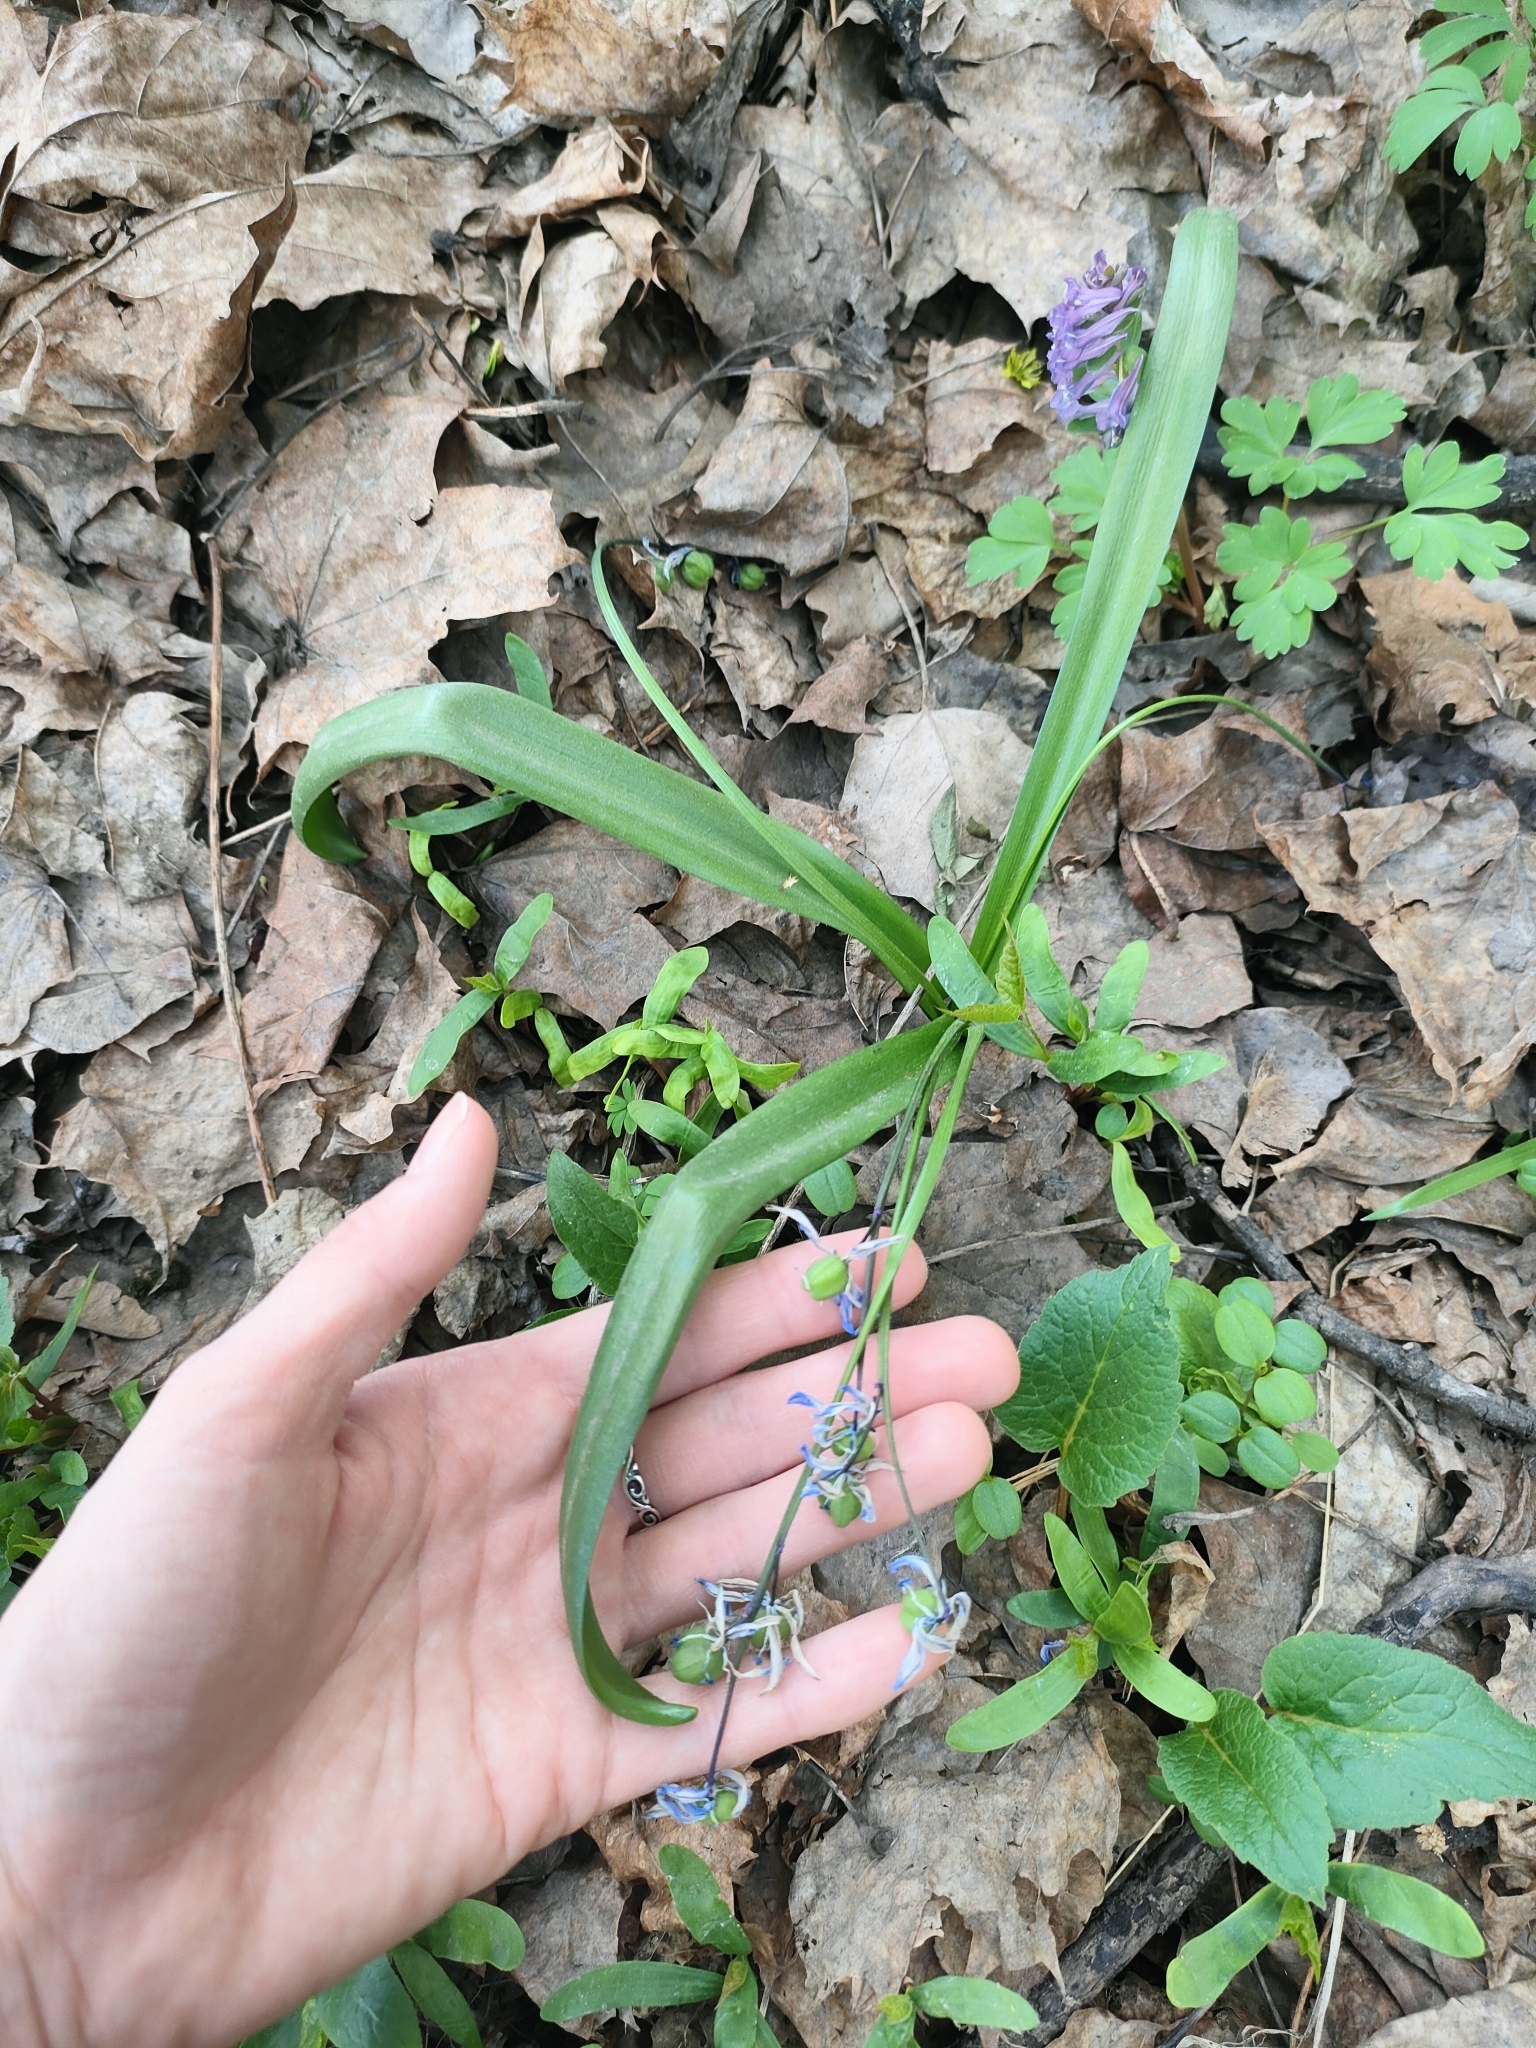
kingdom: Plantae
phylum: Tracheophyta
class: Liliopsida
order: Asparagales
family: Asparagaceae
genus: Scilla
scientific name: Scilla siberica
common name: Siberian squill
